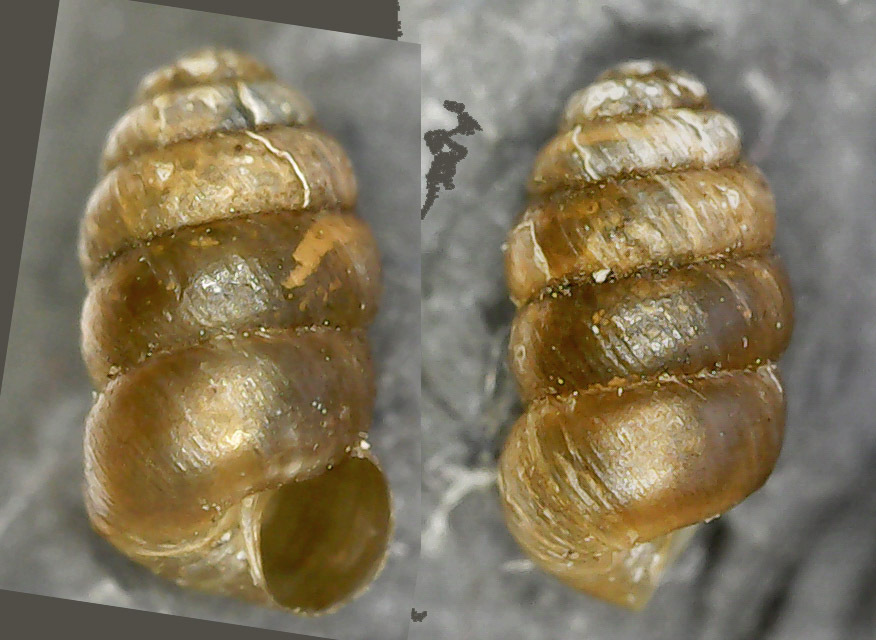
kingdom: Animalia
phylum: Mollusca
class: Gastropoda
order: Stylommatophora
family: Truncatellinidae
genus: Columella
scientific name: Columella edentula
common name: Toothless chrysalis snail
